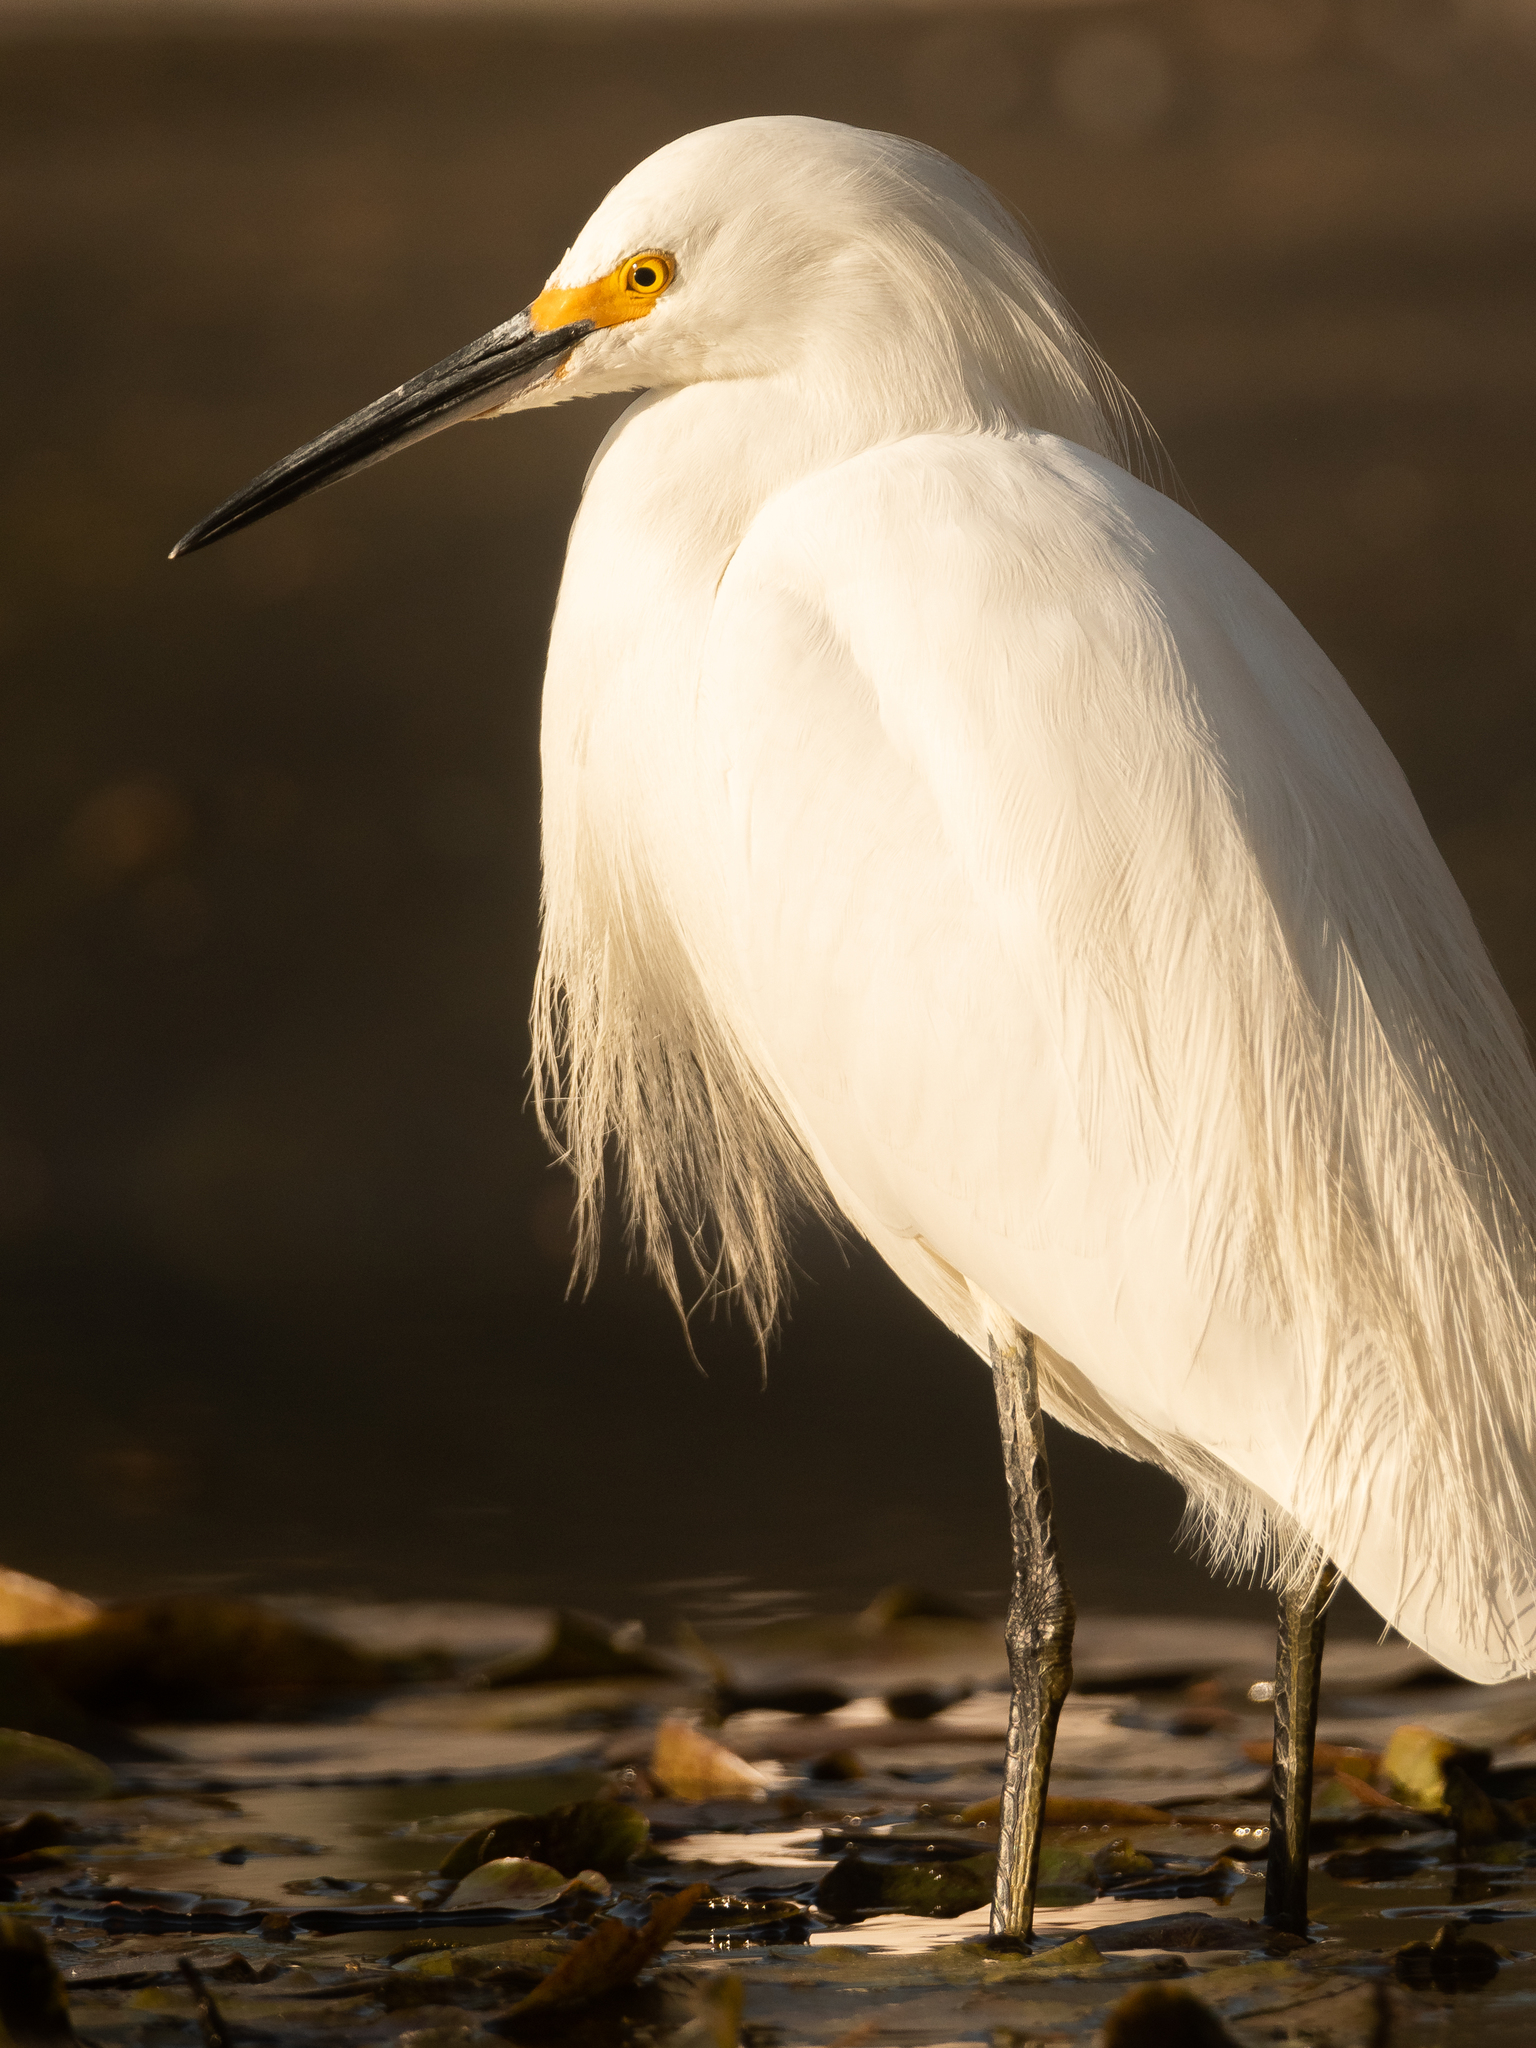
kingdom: Animalia
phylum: Chordata
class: Aves
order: Pelecaniformes
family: Ardeidae
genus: Egretta
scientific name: Egretta thula
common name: Snowy egret
